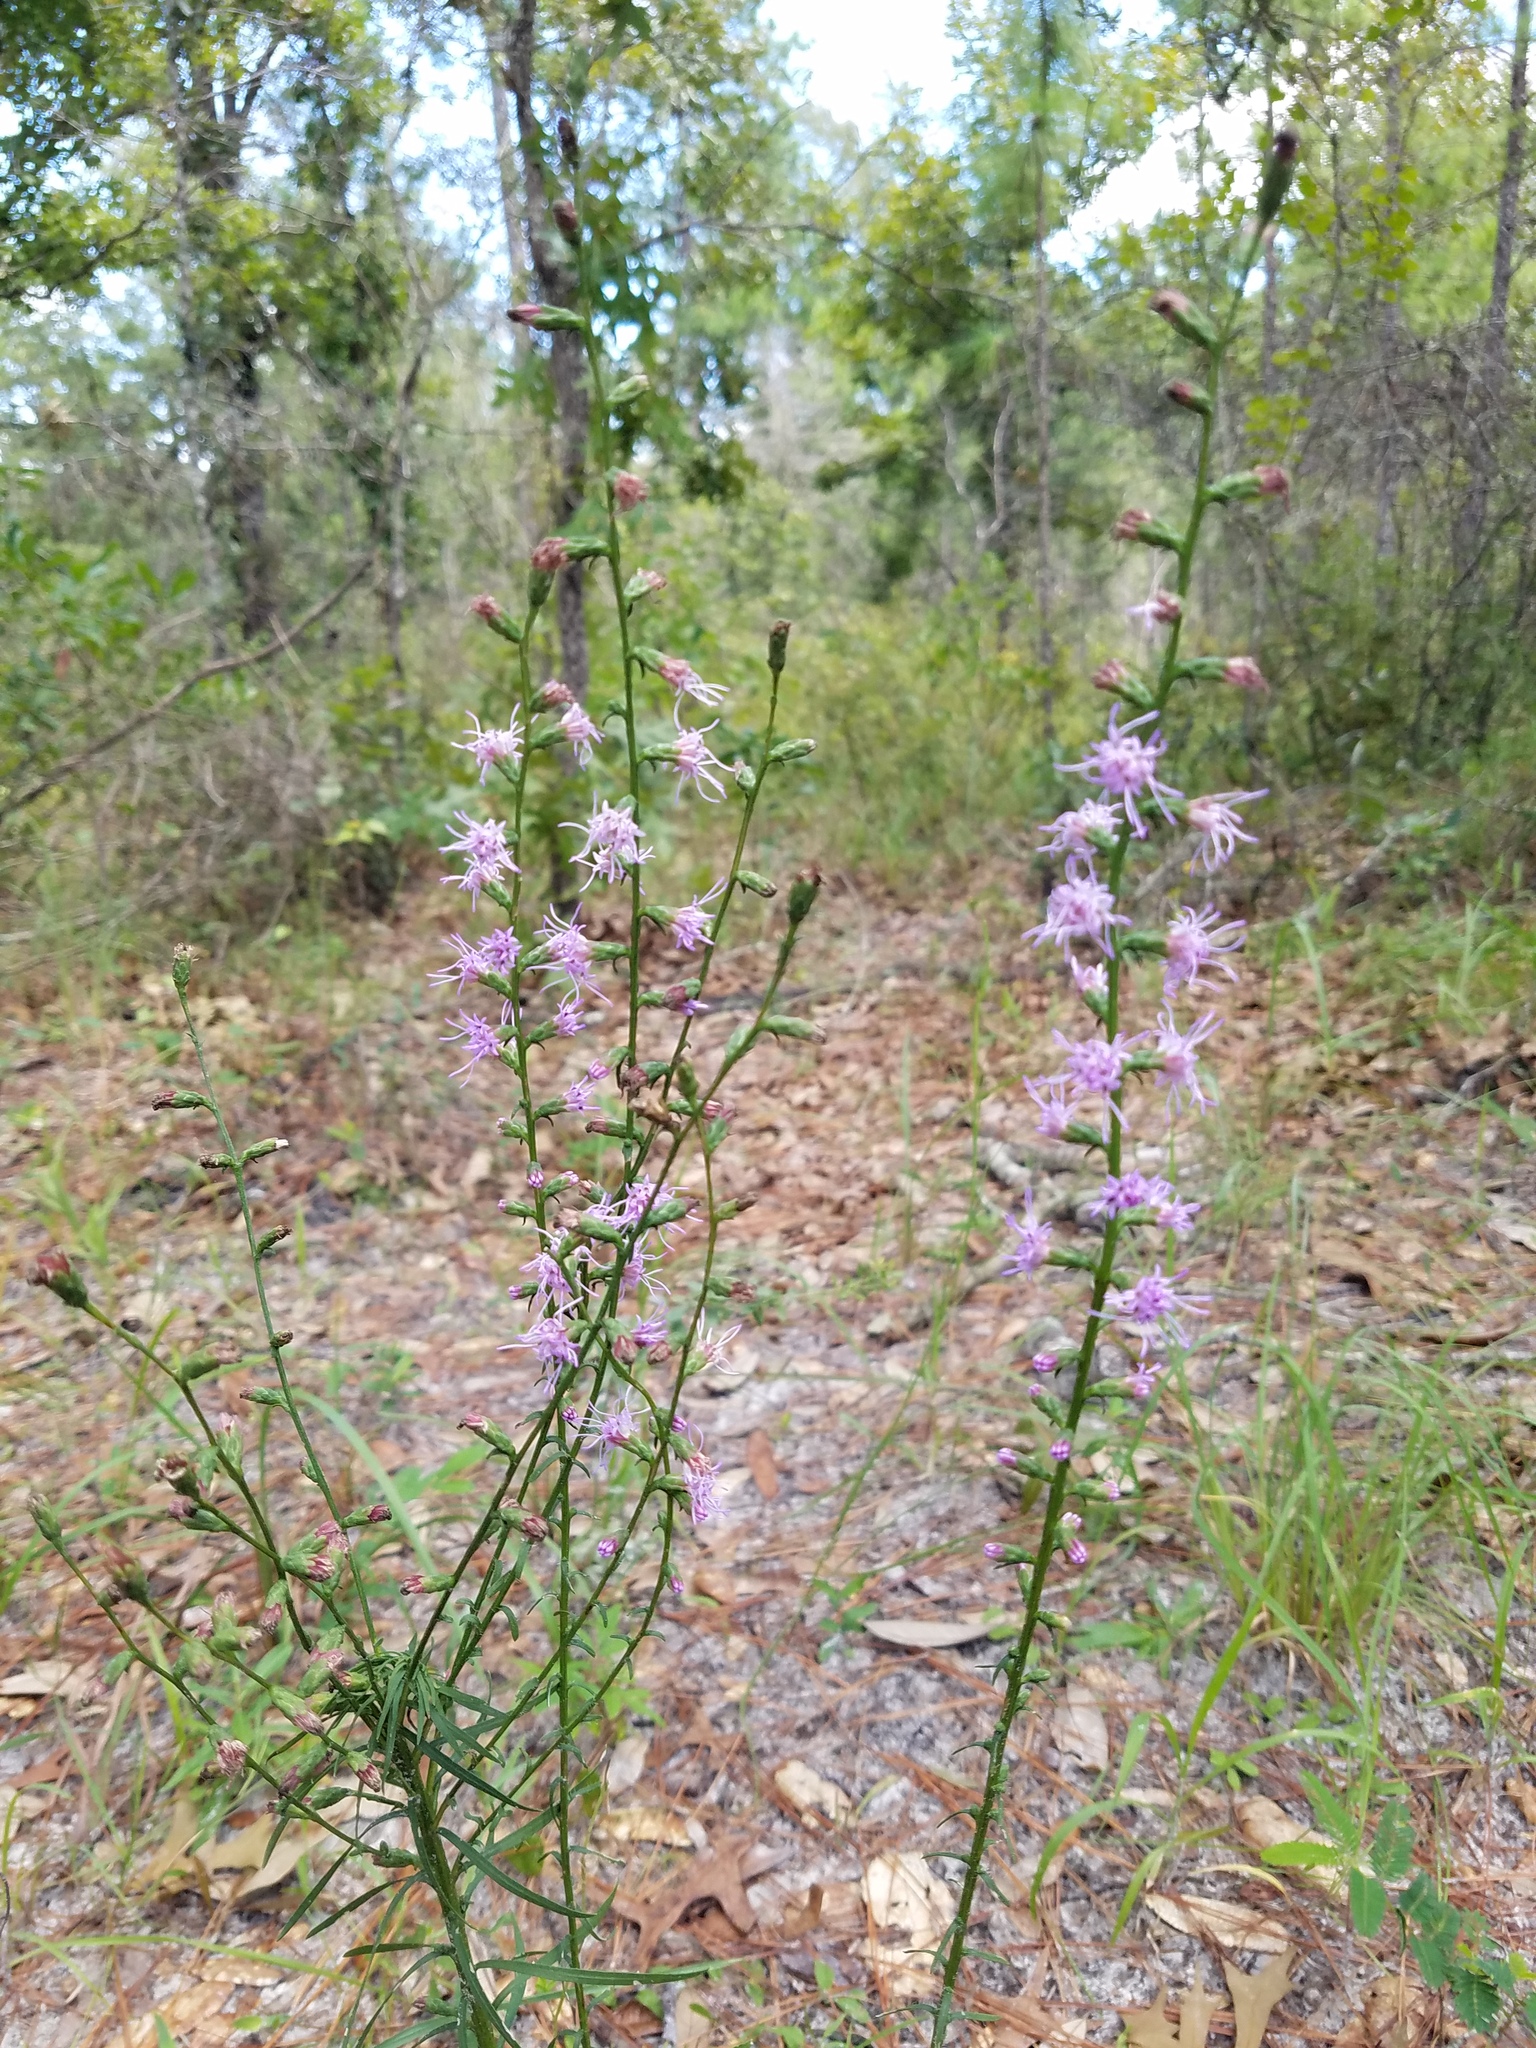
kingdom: Plantae
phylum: Tracheophyta
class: Magnoliopsida
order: Asterales
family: Asteraceae
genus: Liatris
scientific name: Liatris elegantula
